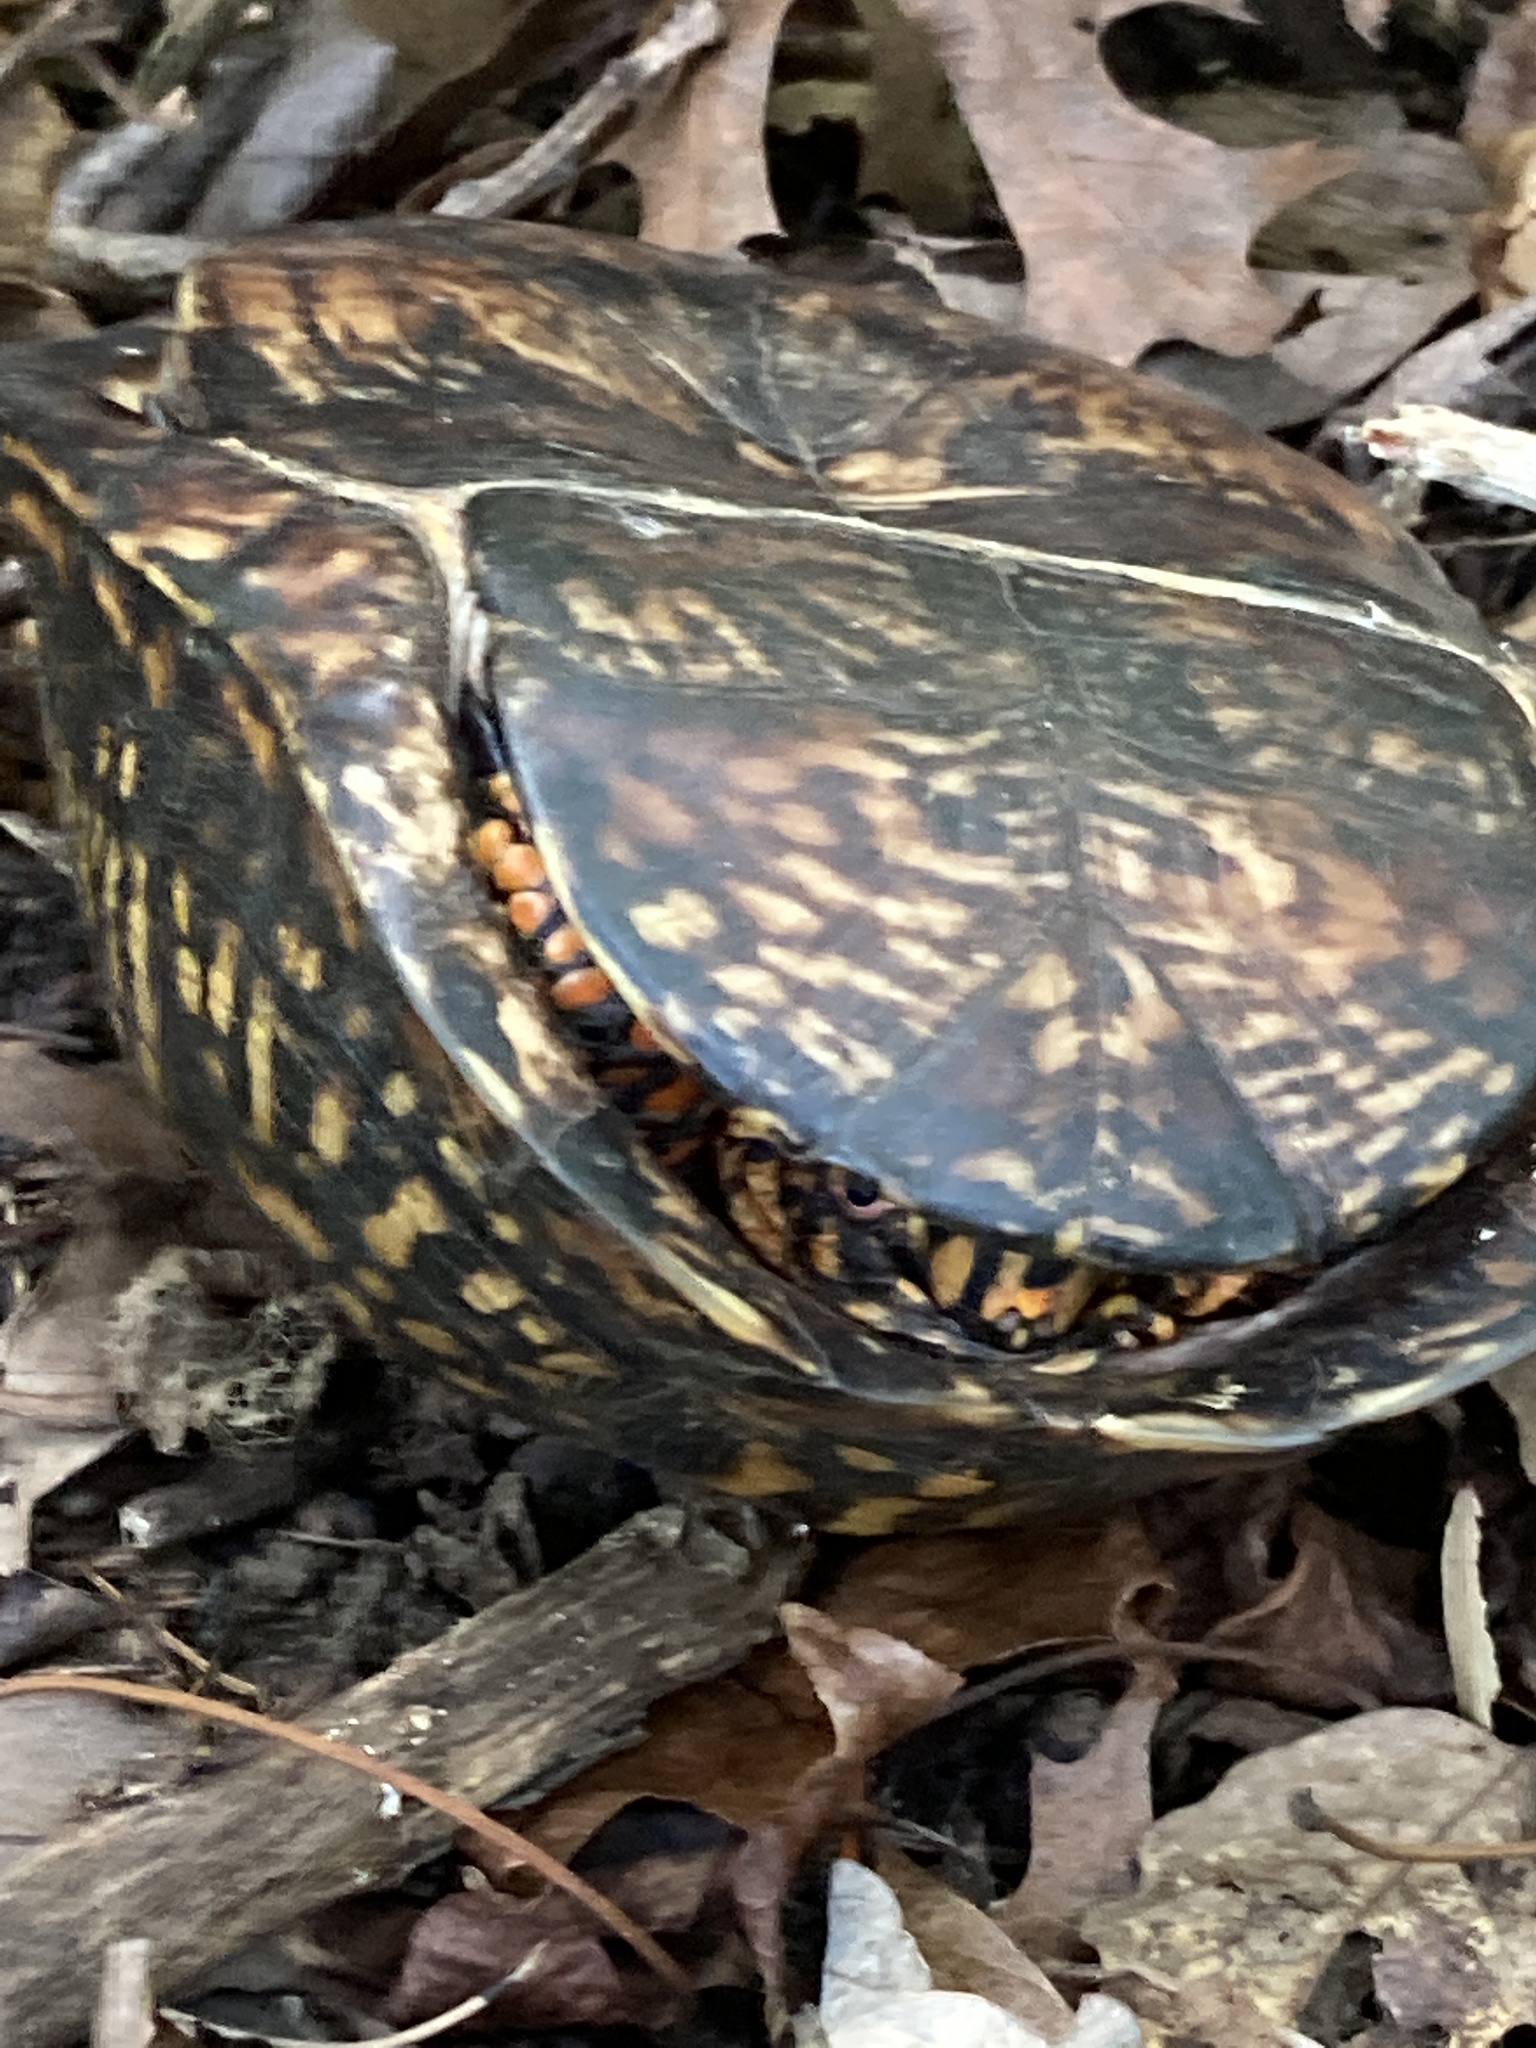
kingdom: Animalia
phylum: Chordata
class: Testudines
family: Emydidae
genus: Terrapene
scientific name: Terrapene carolina
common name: Common box turtle
